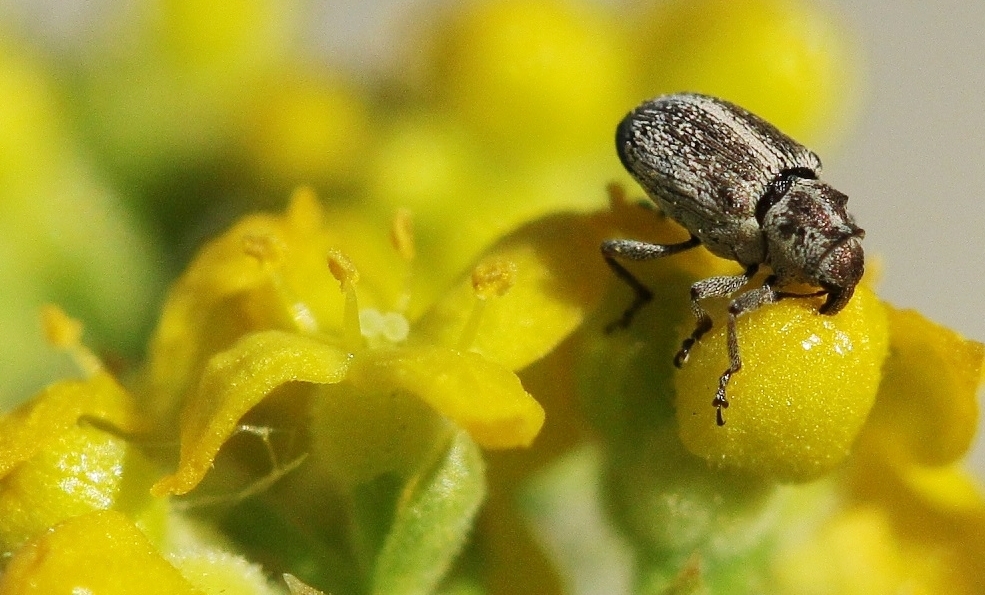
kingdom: Animalia
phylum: Arthropoda
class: Insecta
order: Coleoptera
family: Curculionidae
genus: Ceutorhynchus
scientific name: Ceutorhynchus fabrilis
